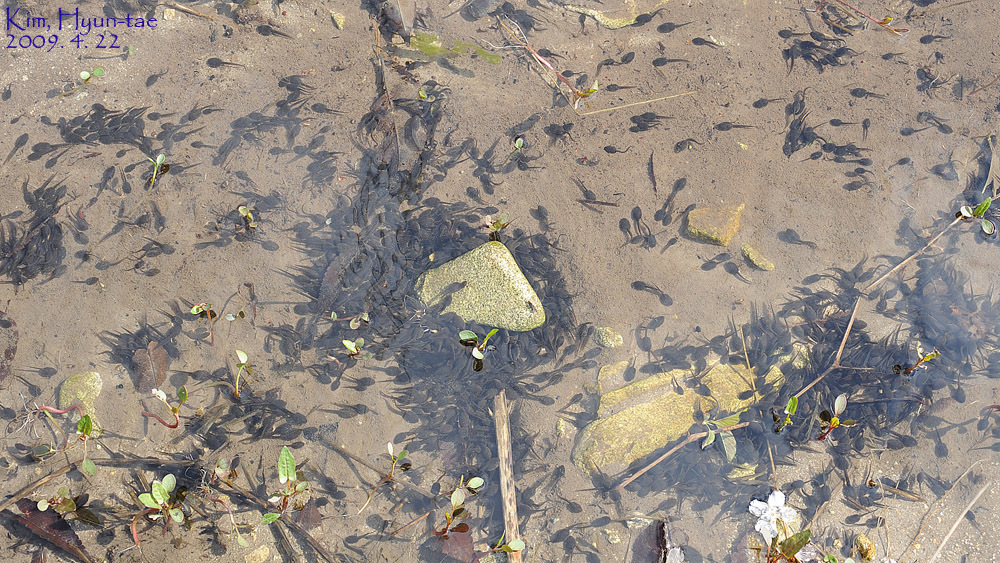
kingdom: Animalia
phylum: Chordata
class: Amphibia
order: Anura
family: Ranidae
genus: Rana
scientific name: Rana uenoi
